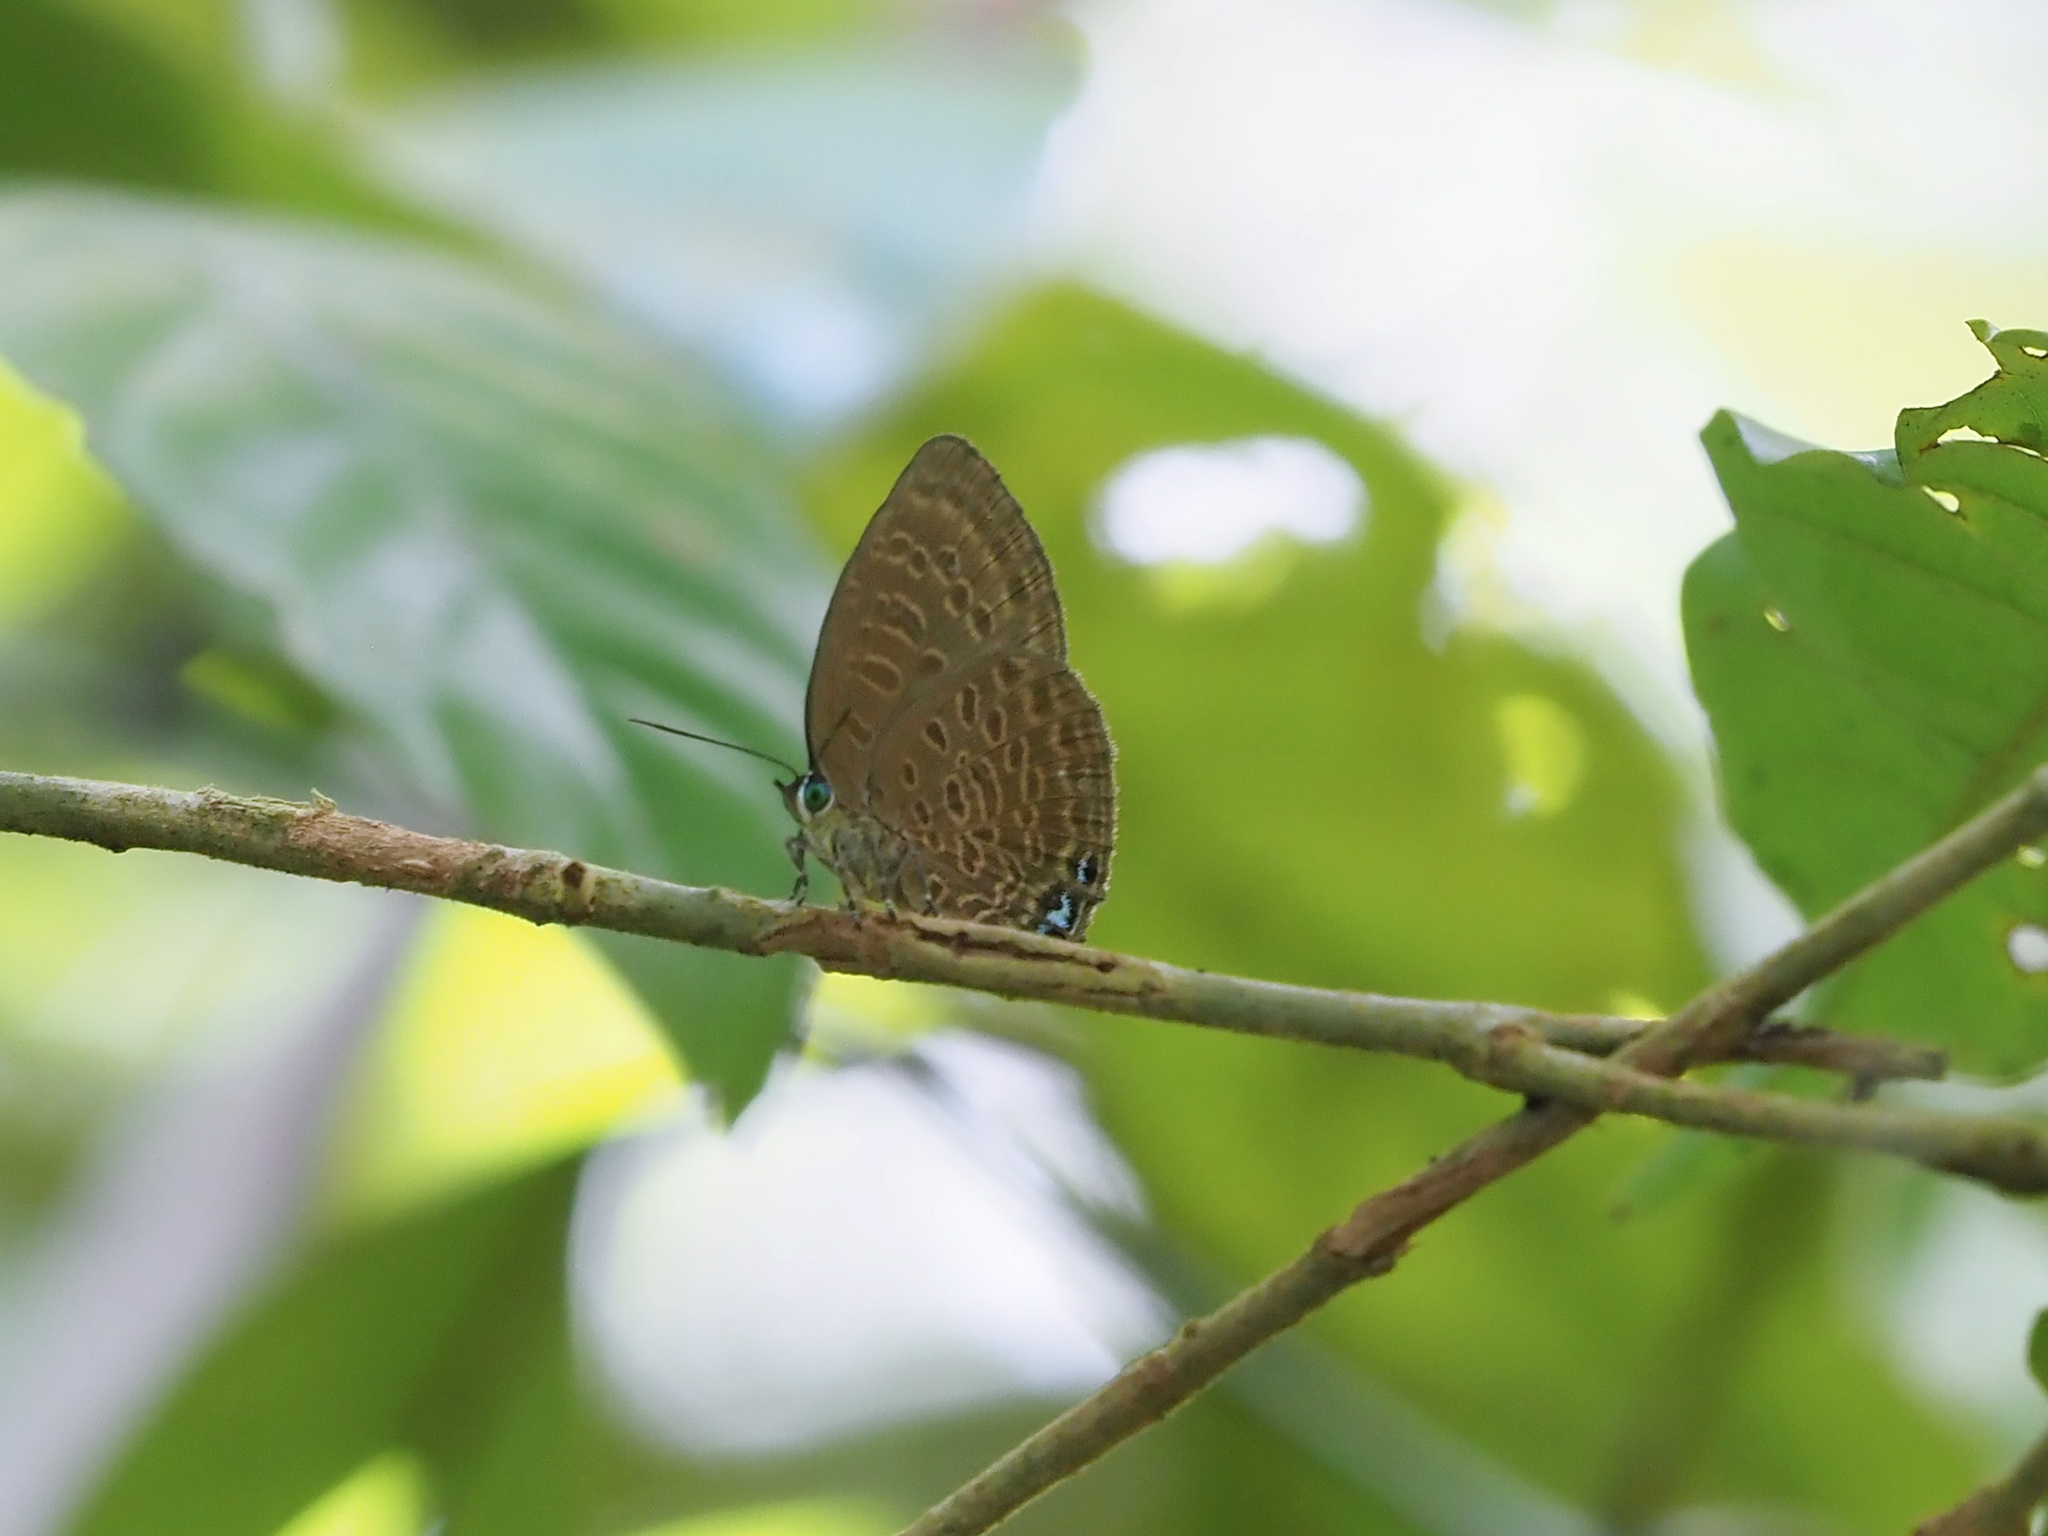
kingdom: Animalia
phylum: Arthropoda
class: Insecta
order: Lepidoptera
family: Lycaenidae
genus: Arhopala
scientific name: Arhopala hypomuta
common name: Violet oakblue
